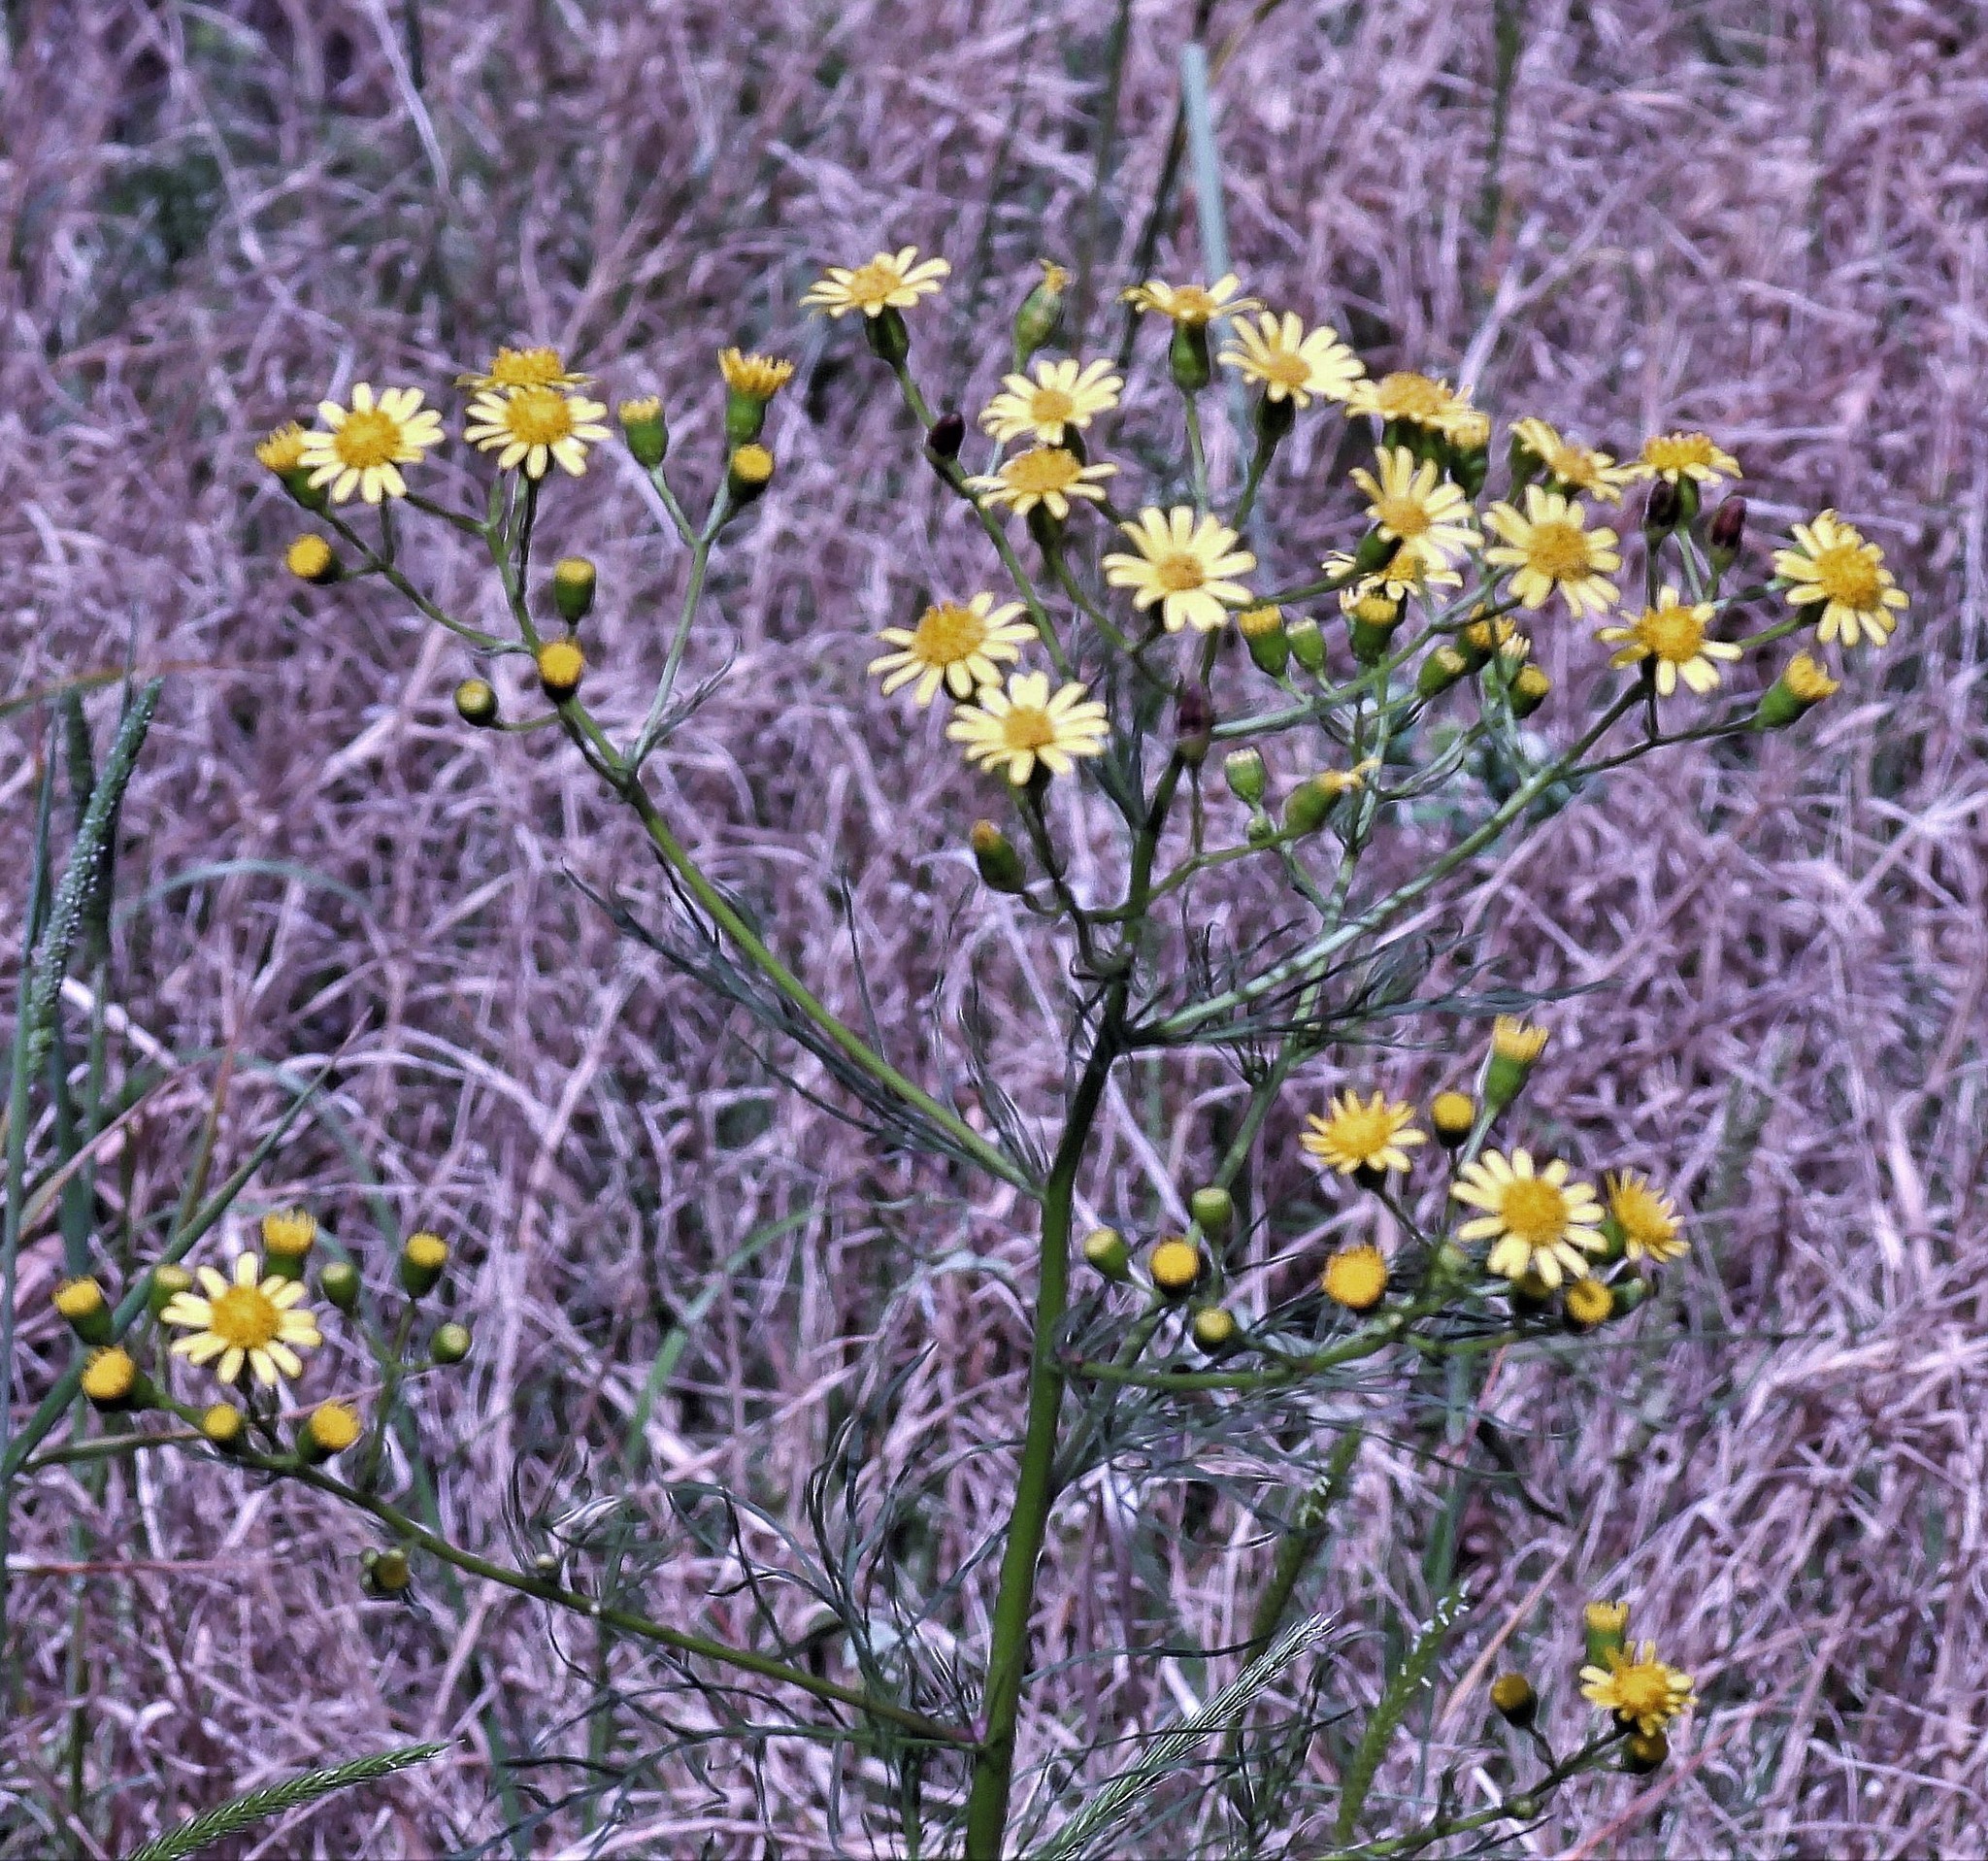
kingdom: Plantae
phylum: Tracheophyta
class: Magnoliopsida
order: Asterales
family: Asteraceae
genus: Senecio
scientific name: Senecio pampeanus
